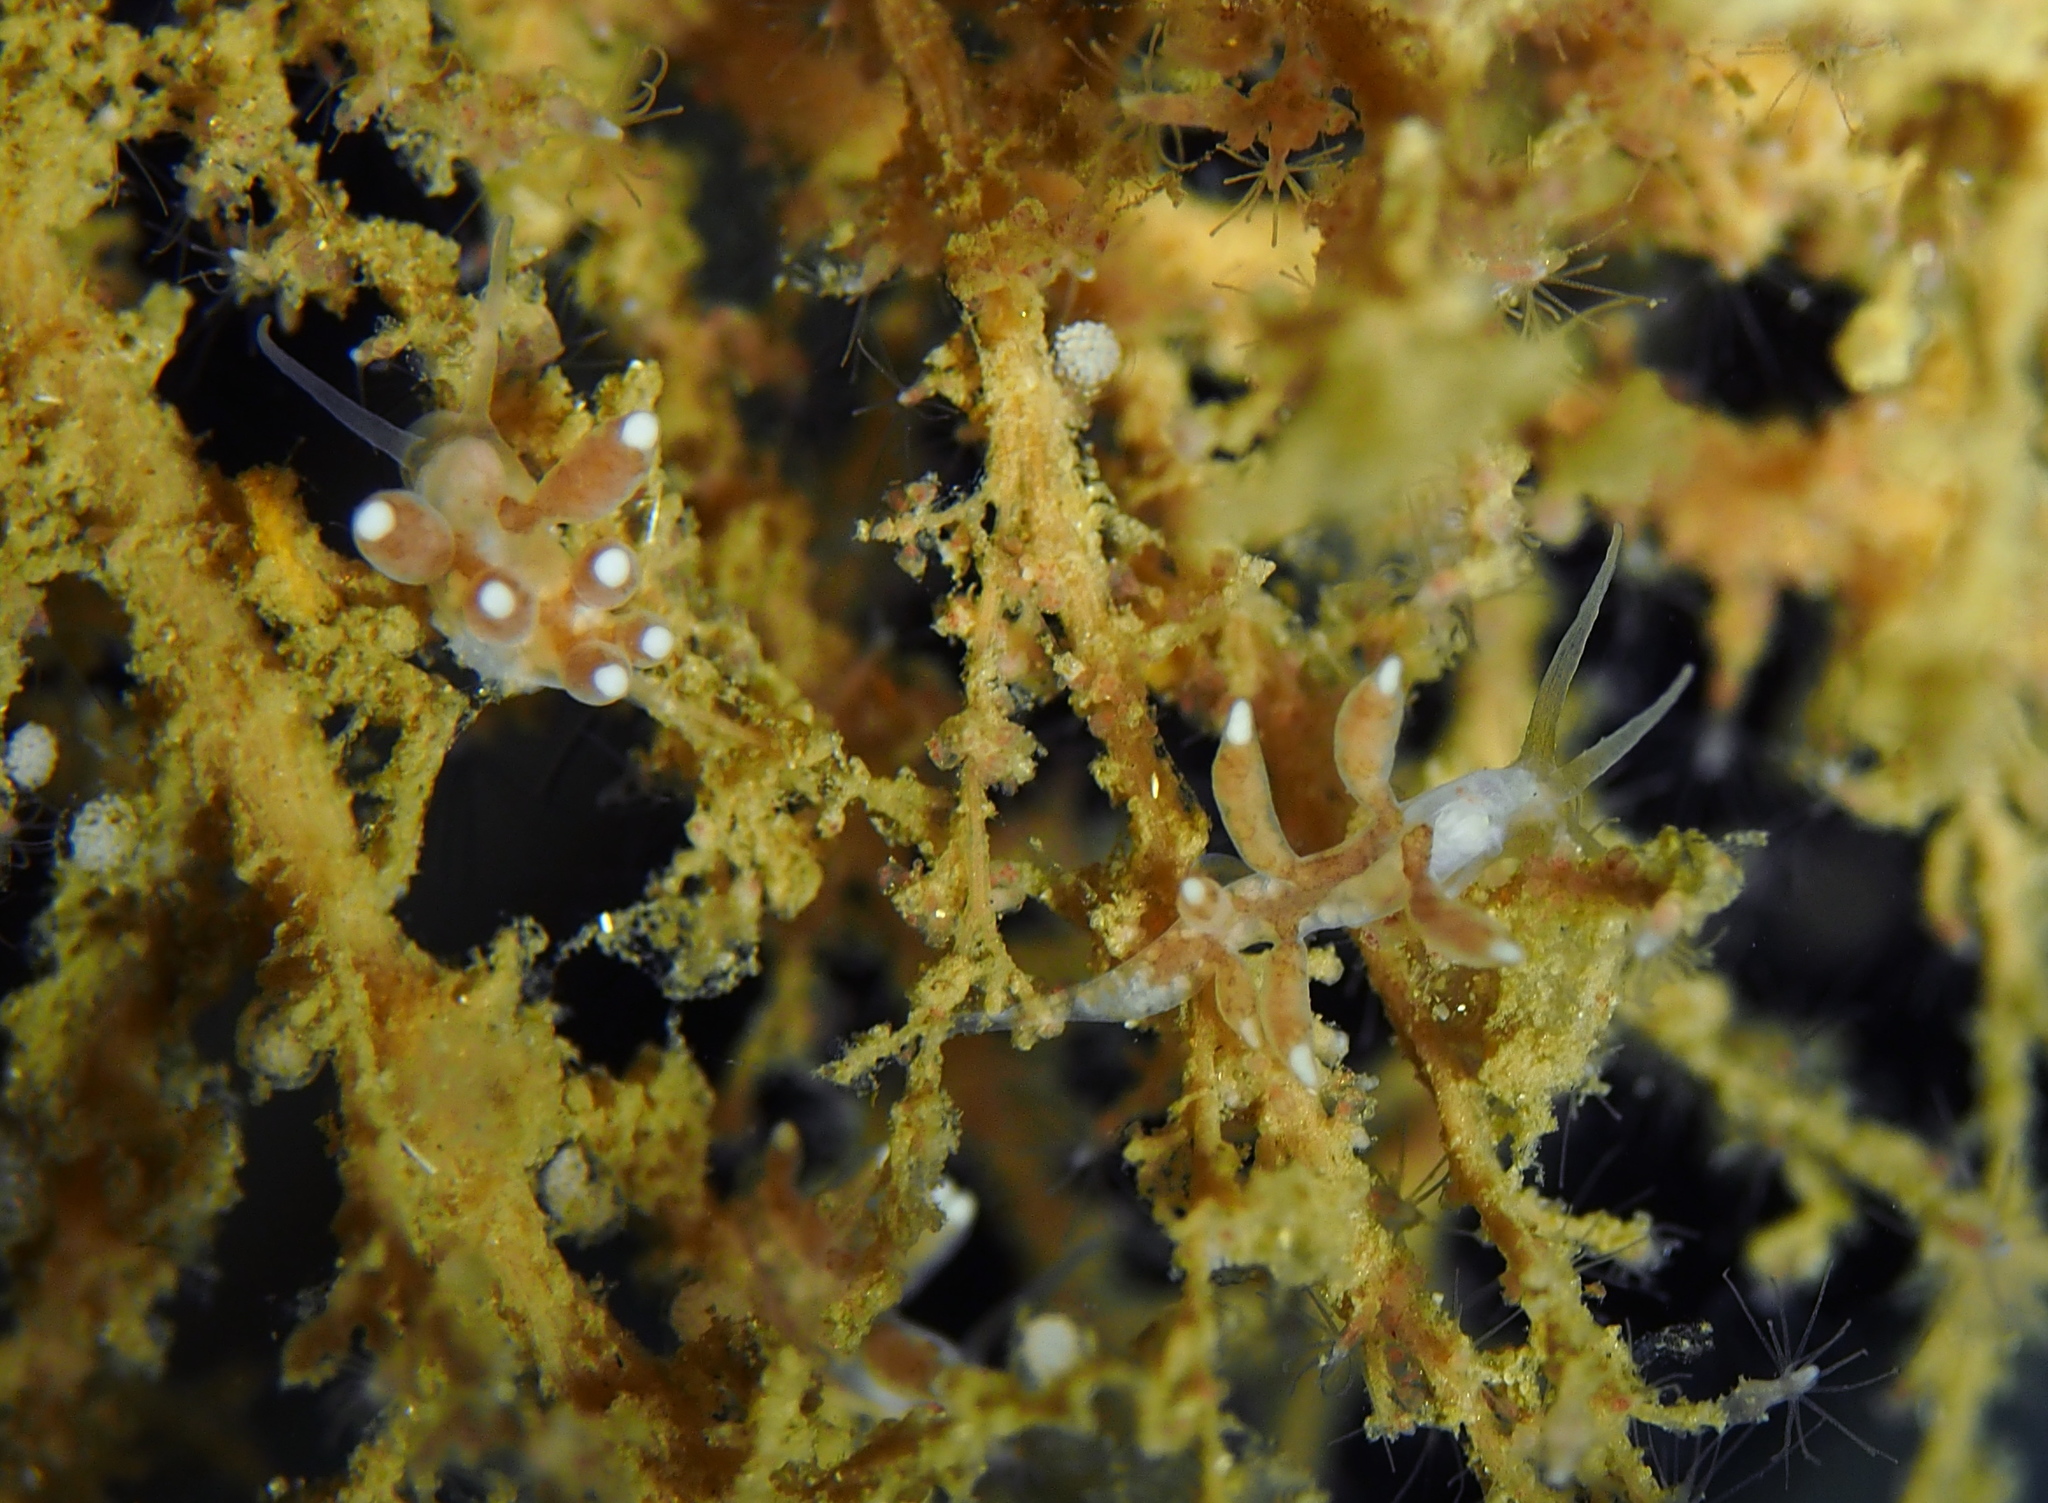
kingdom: Animalia
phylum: Mollusca
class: Gastropoda
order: Nudibranchia
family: Tergipedidae
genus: Tergipes
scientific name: Tergipes tergipes
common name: Johnston's balloon eolis
